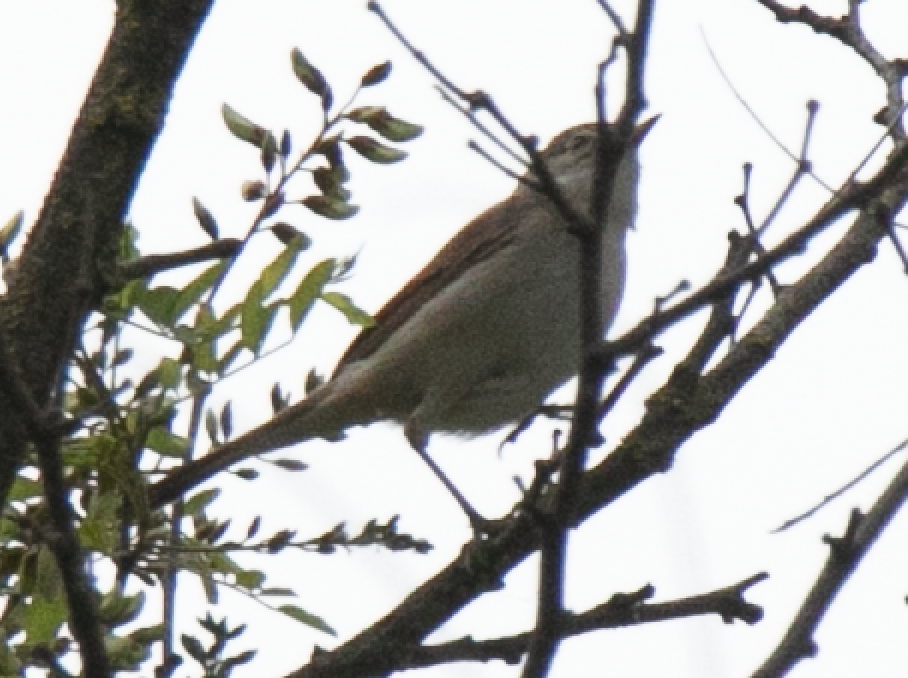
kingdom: Animalia
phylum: Chordata
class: Aves
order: Passeriformes
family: Sylviidae
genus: Sylvia
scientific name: Sylvia communis
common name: Common whitethroat
